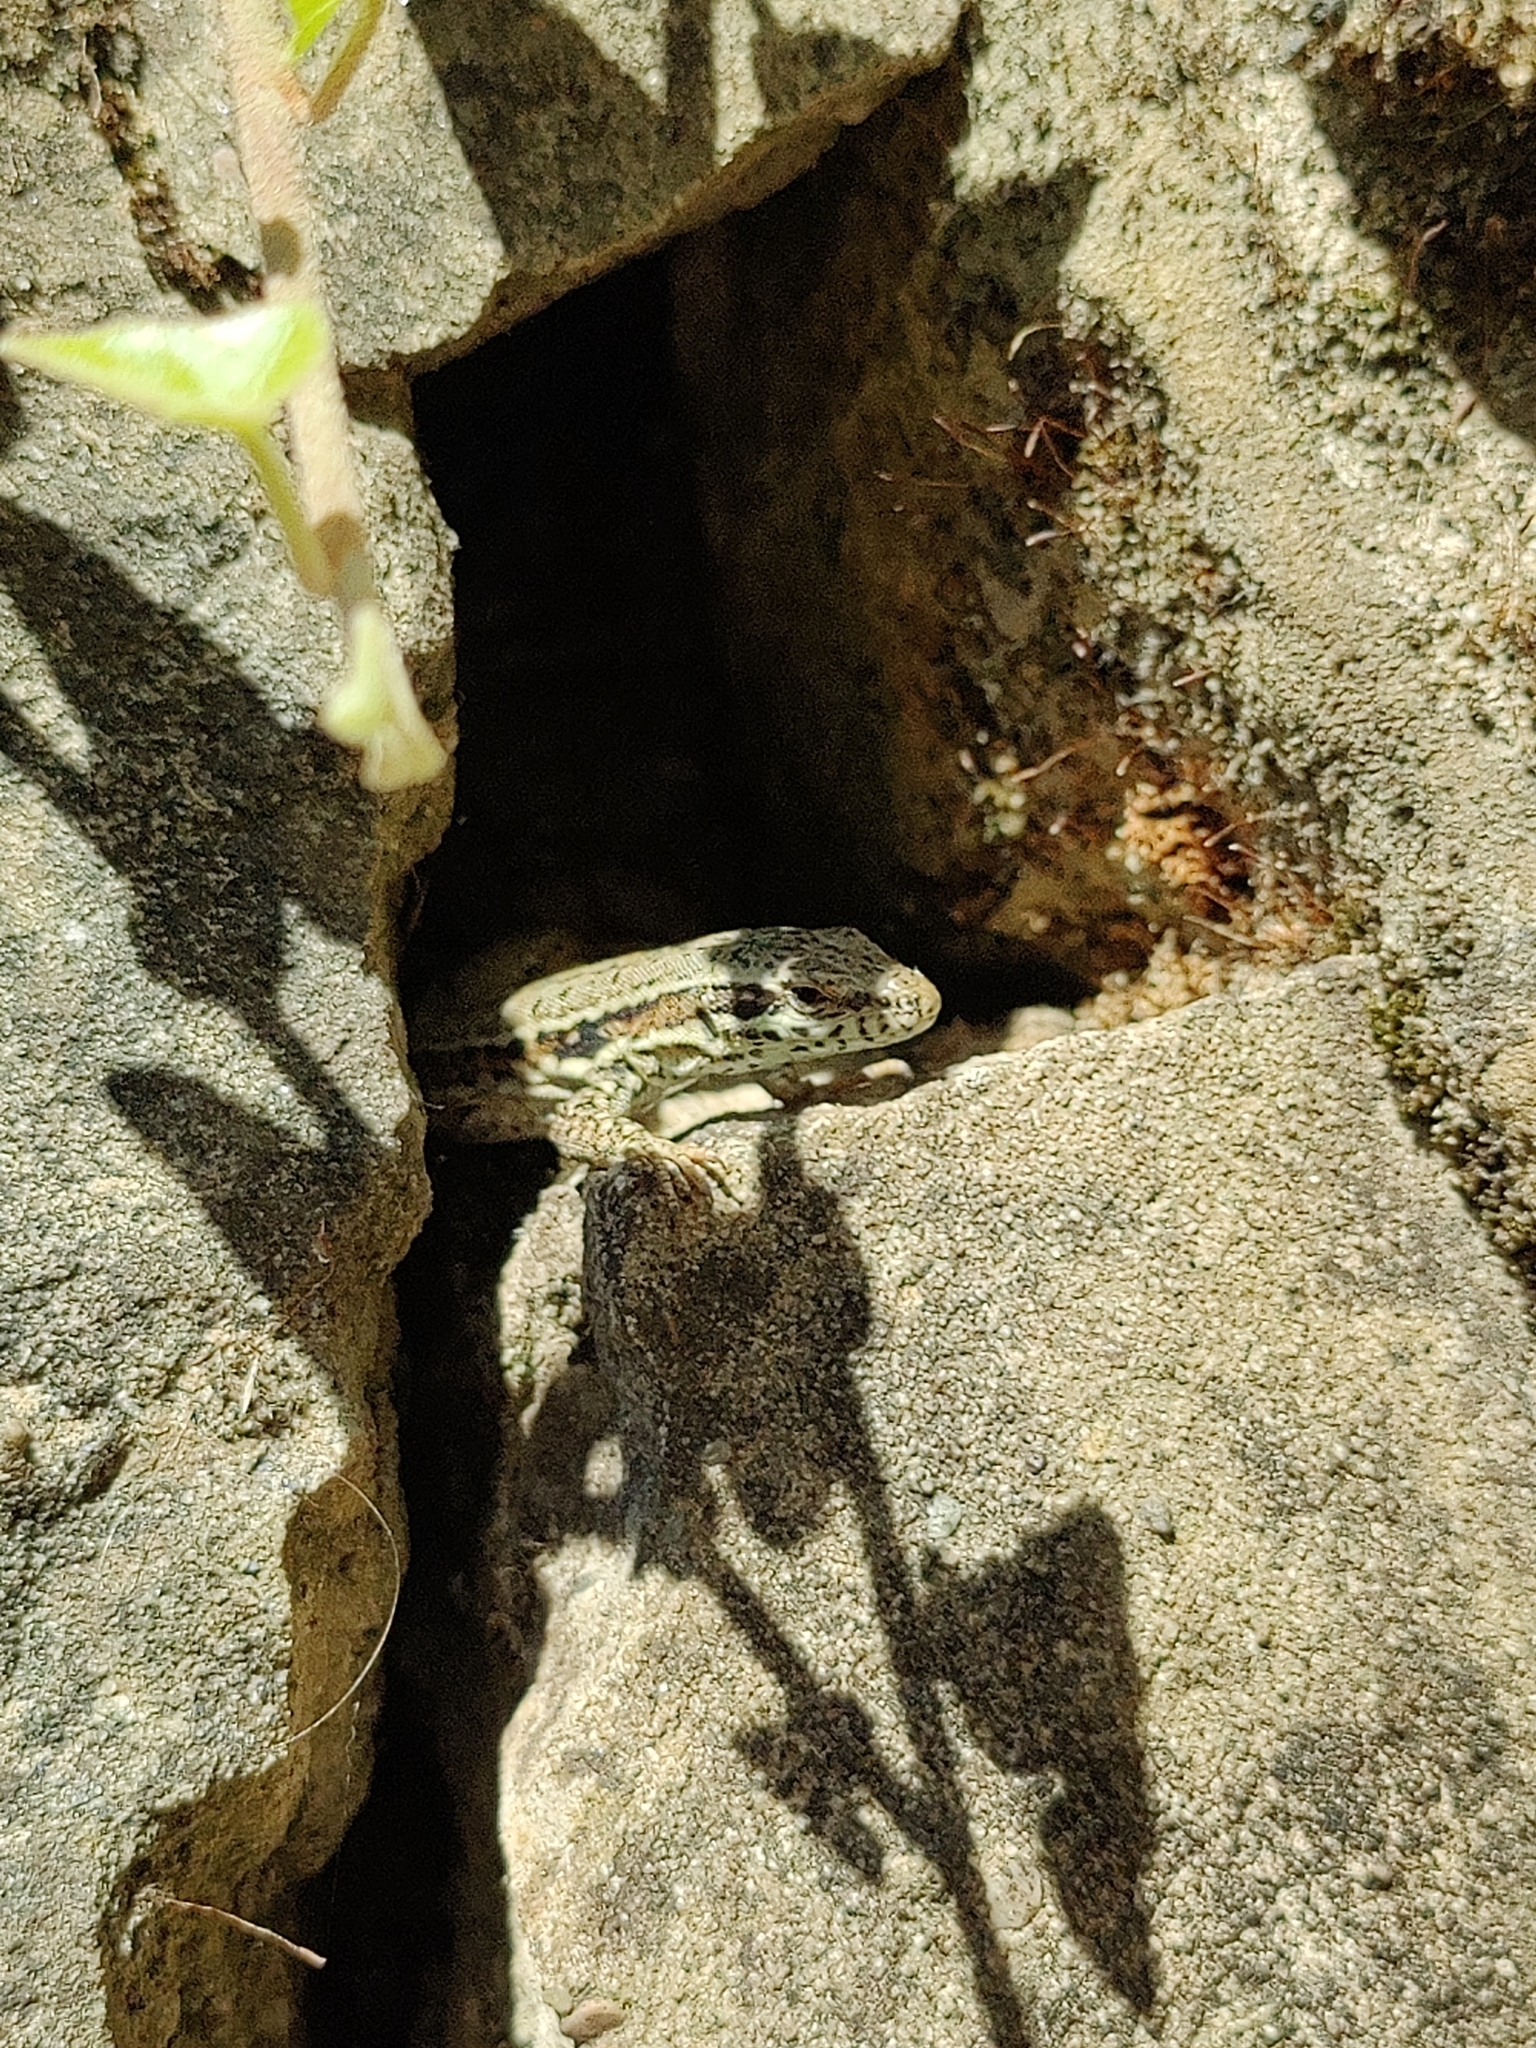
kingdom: Animalia
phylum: Chordata
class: Squamata
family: Lacertidae
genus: Podarcis
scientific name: Podarcis muralis
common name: Common wall lizard
